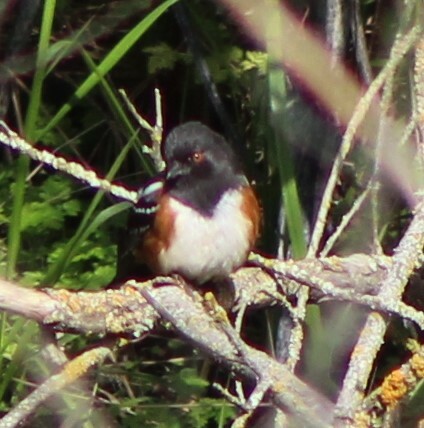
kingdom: Animalia
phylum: Chordata
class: Aves
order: Passeriformes
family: Passerellidae
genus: Pipilo
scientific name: Pipilo maculatus
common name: Spotted towhee
